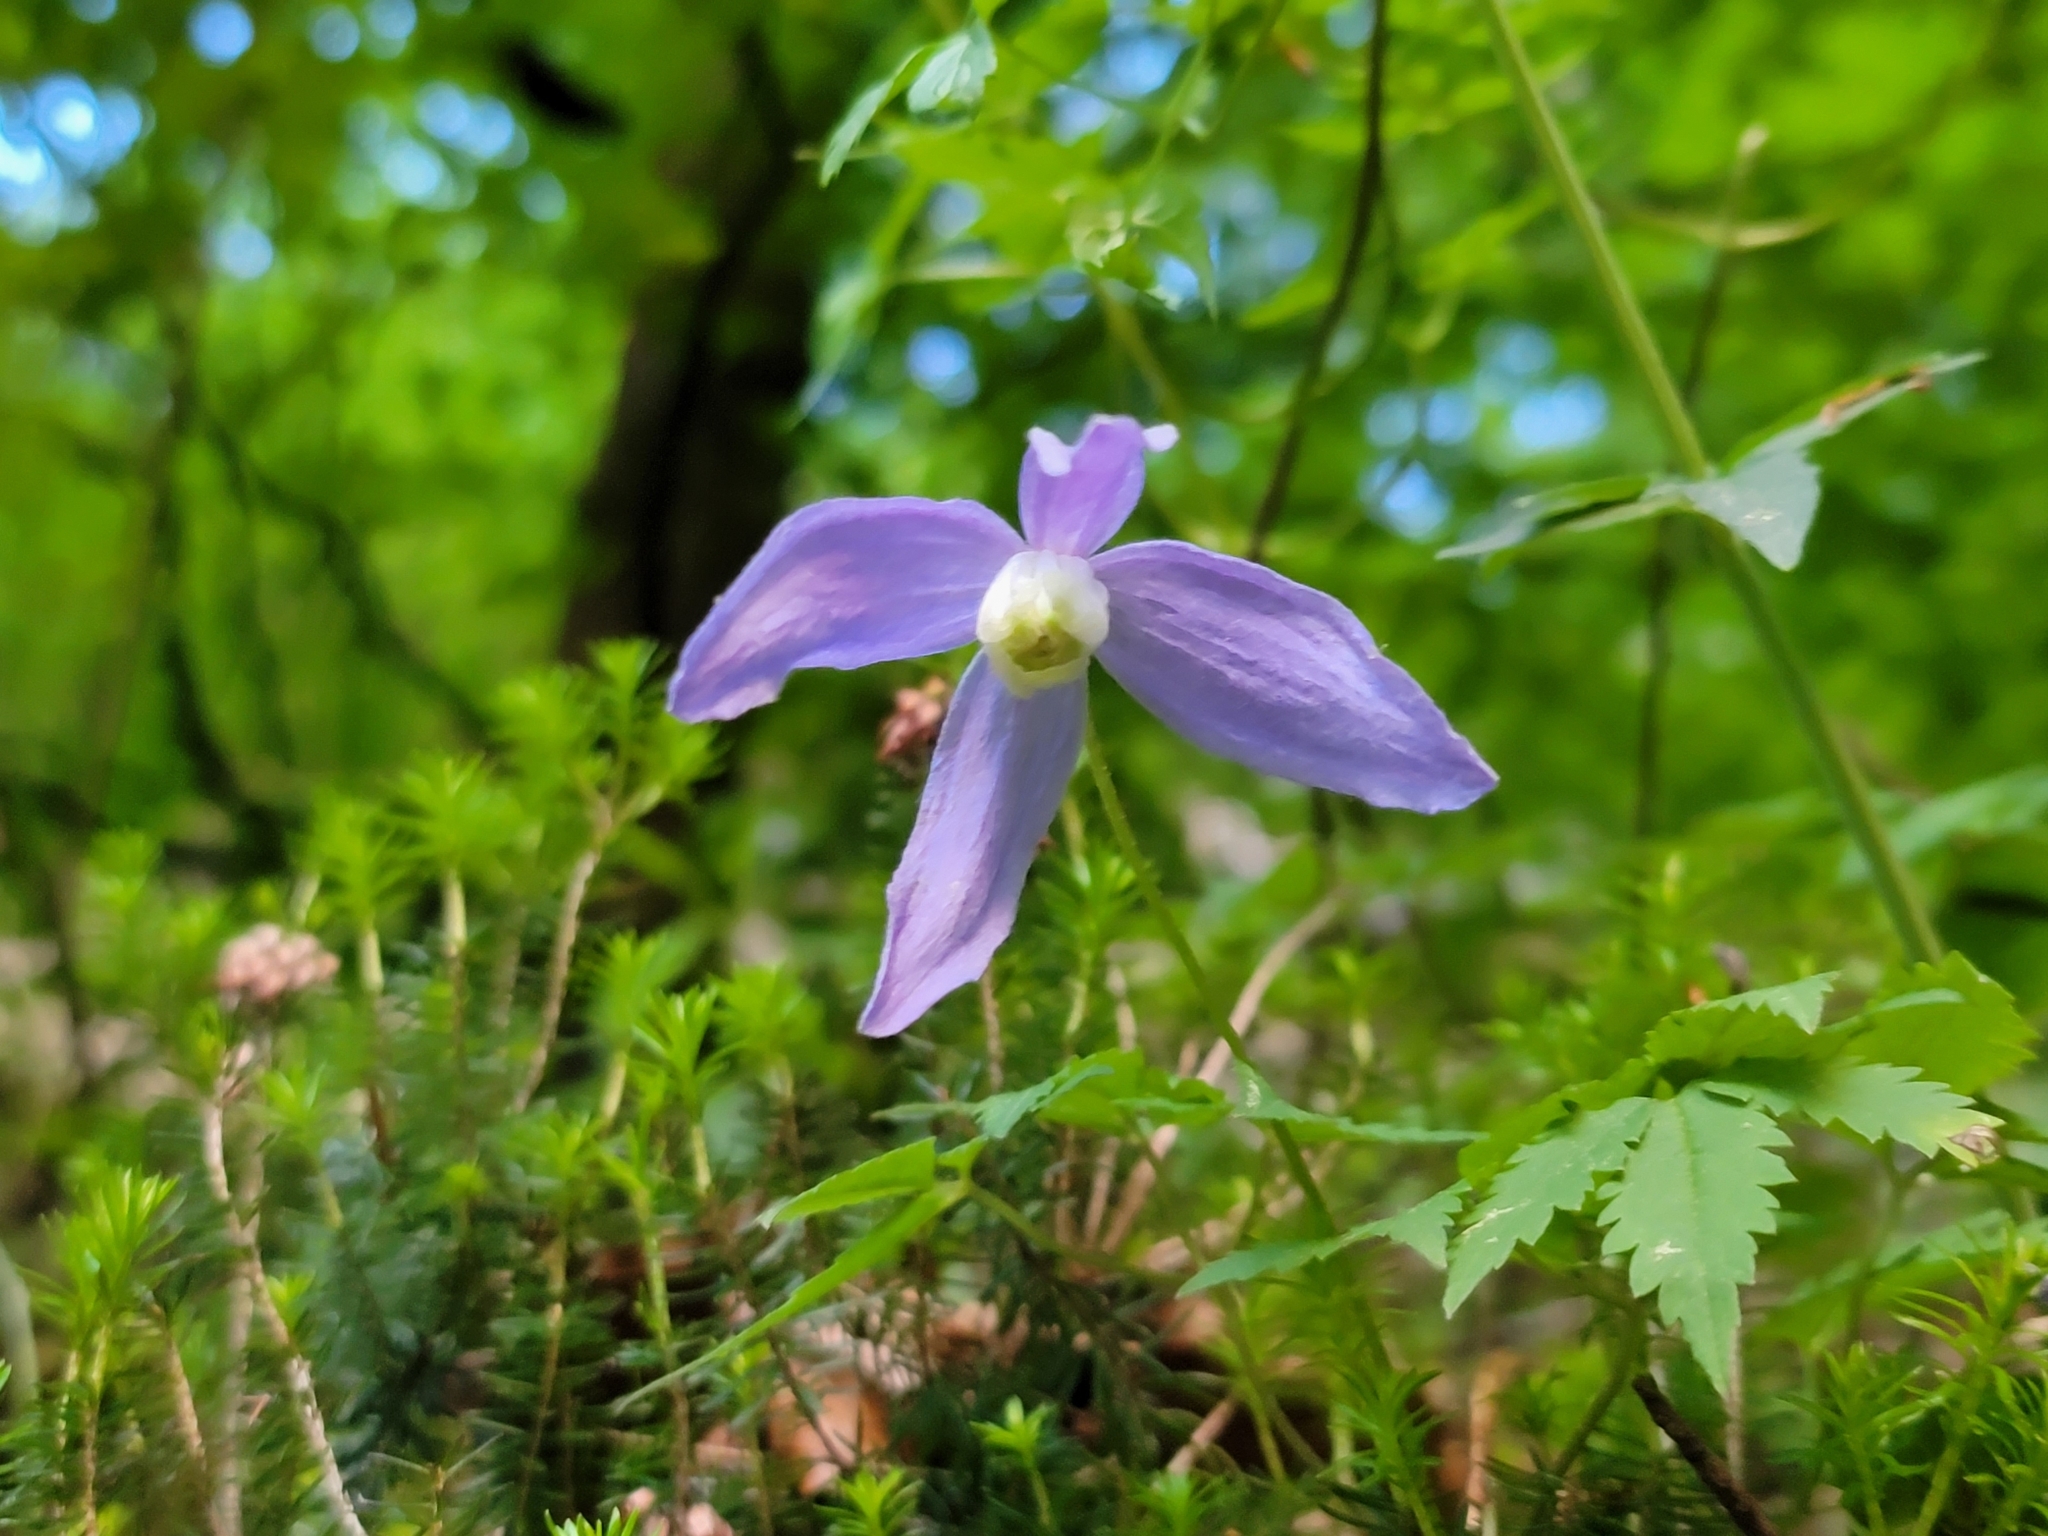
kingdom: Plantae
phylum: Tracheophyta
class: Magnoliopsida
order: Ranunculales
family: Ranunculaceae
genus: Clematis
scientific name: Clematis alpina
